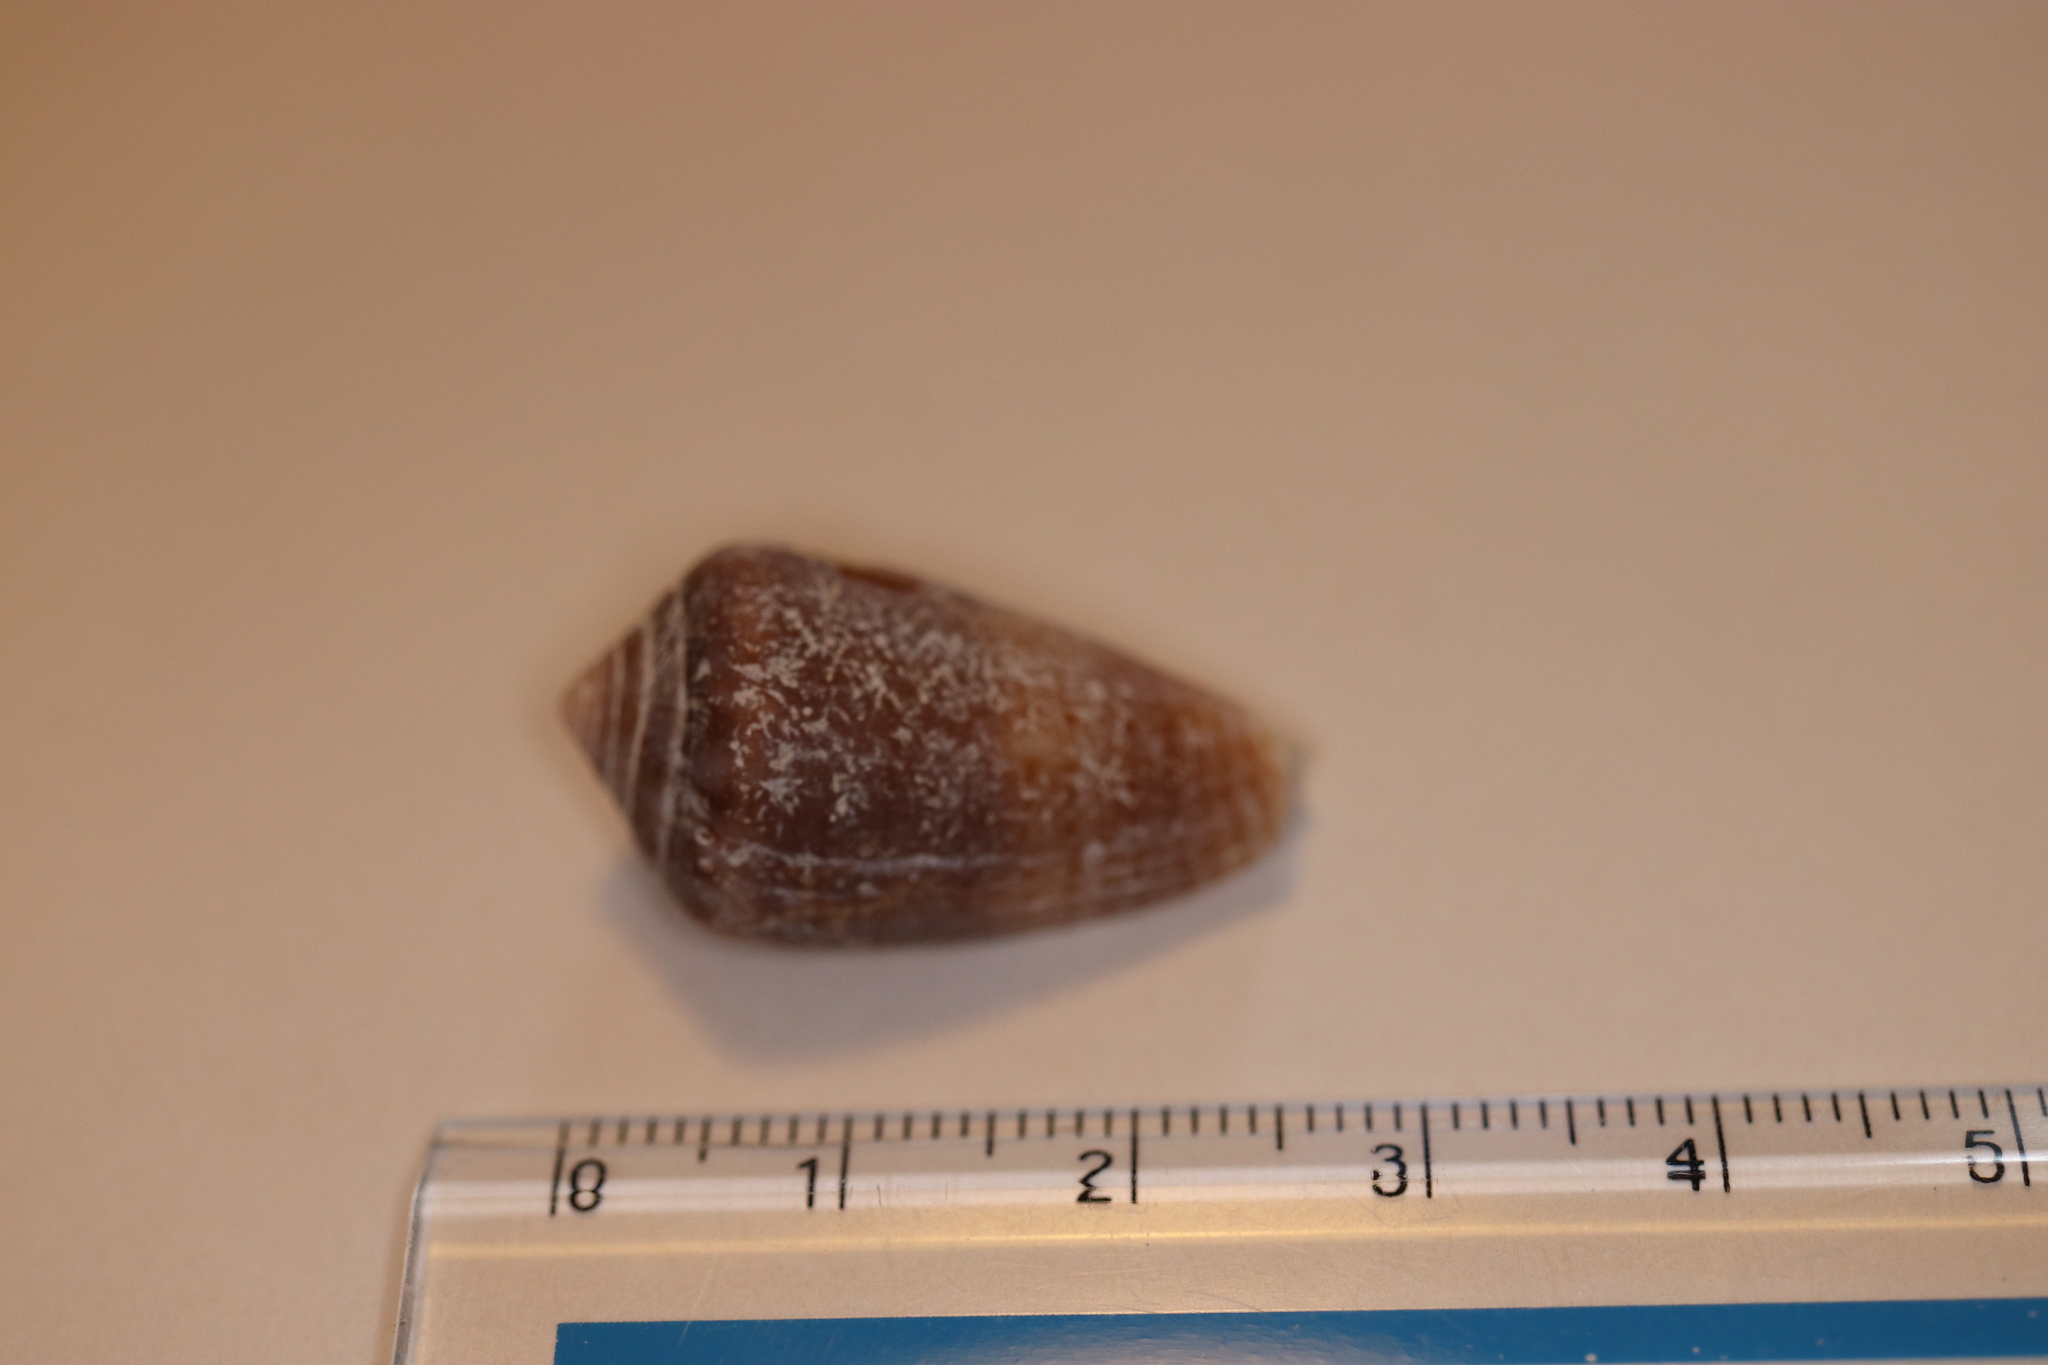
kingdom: Animalia
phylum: Mollusca
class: Gastropoda
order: Neogastropoda
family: Conidae
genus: Conus
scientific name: Conus pauperculus
